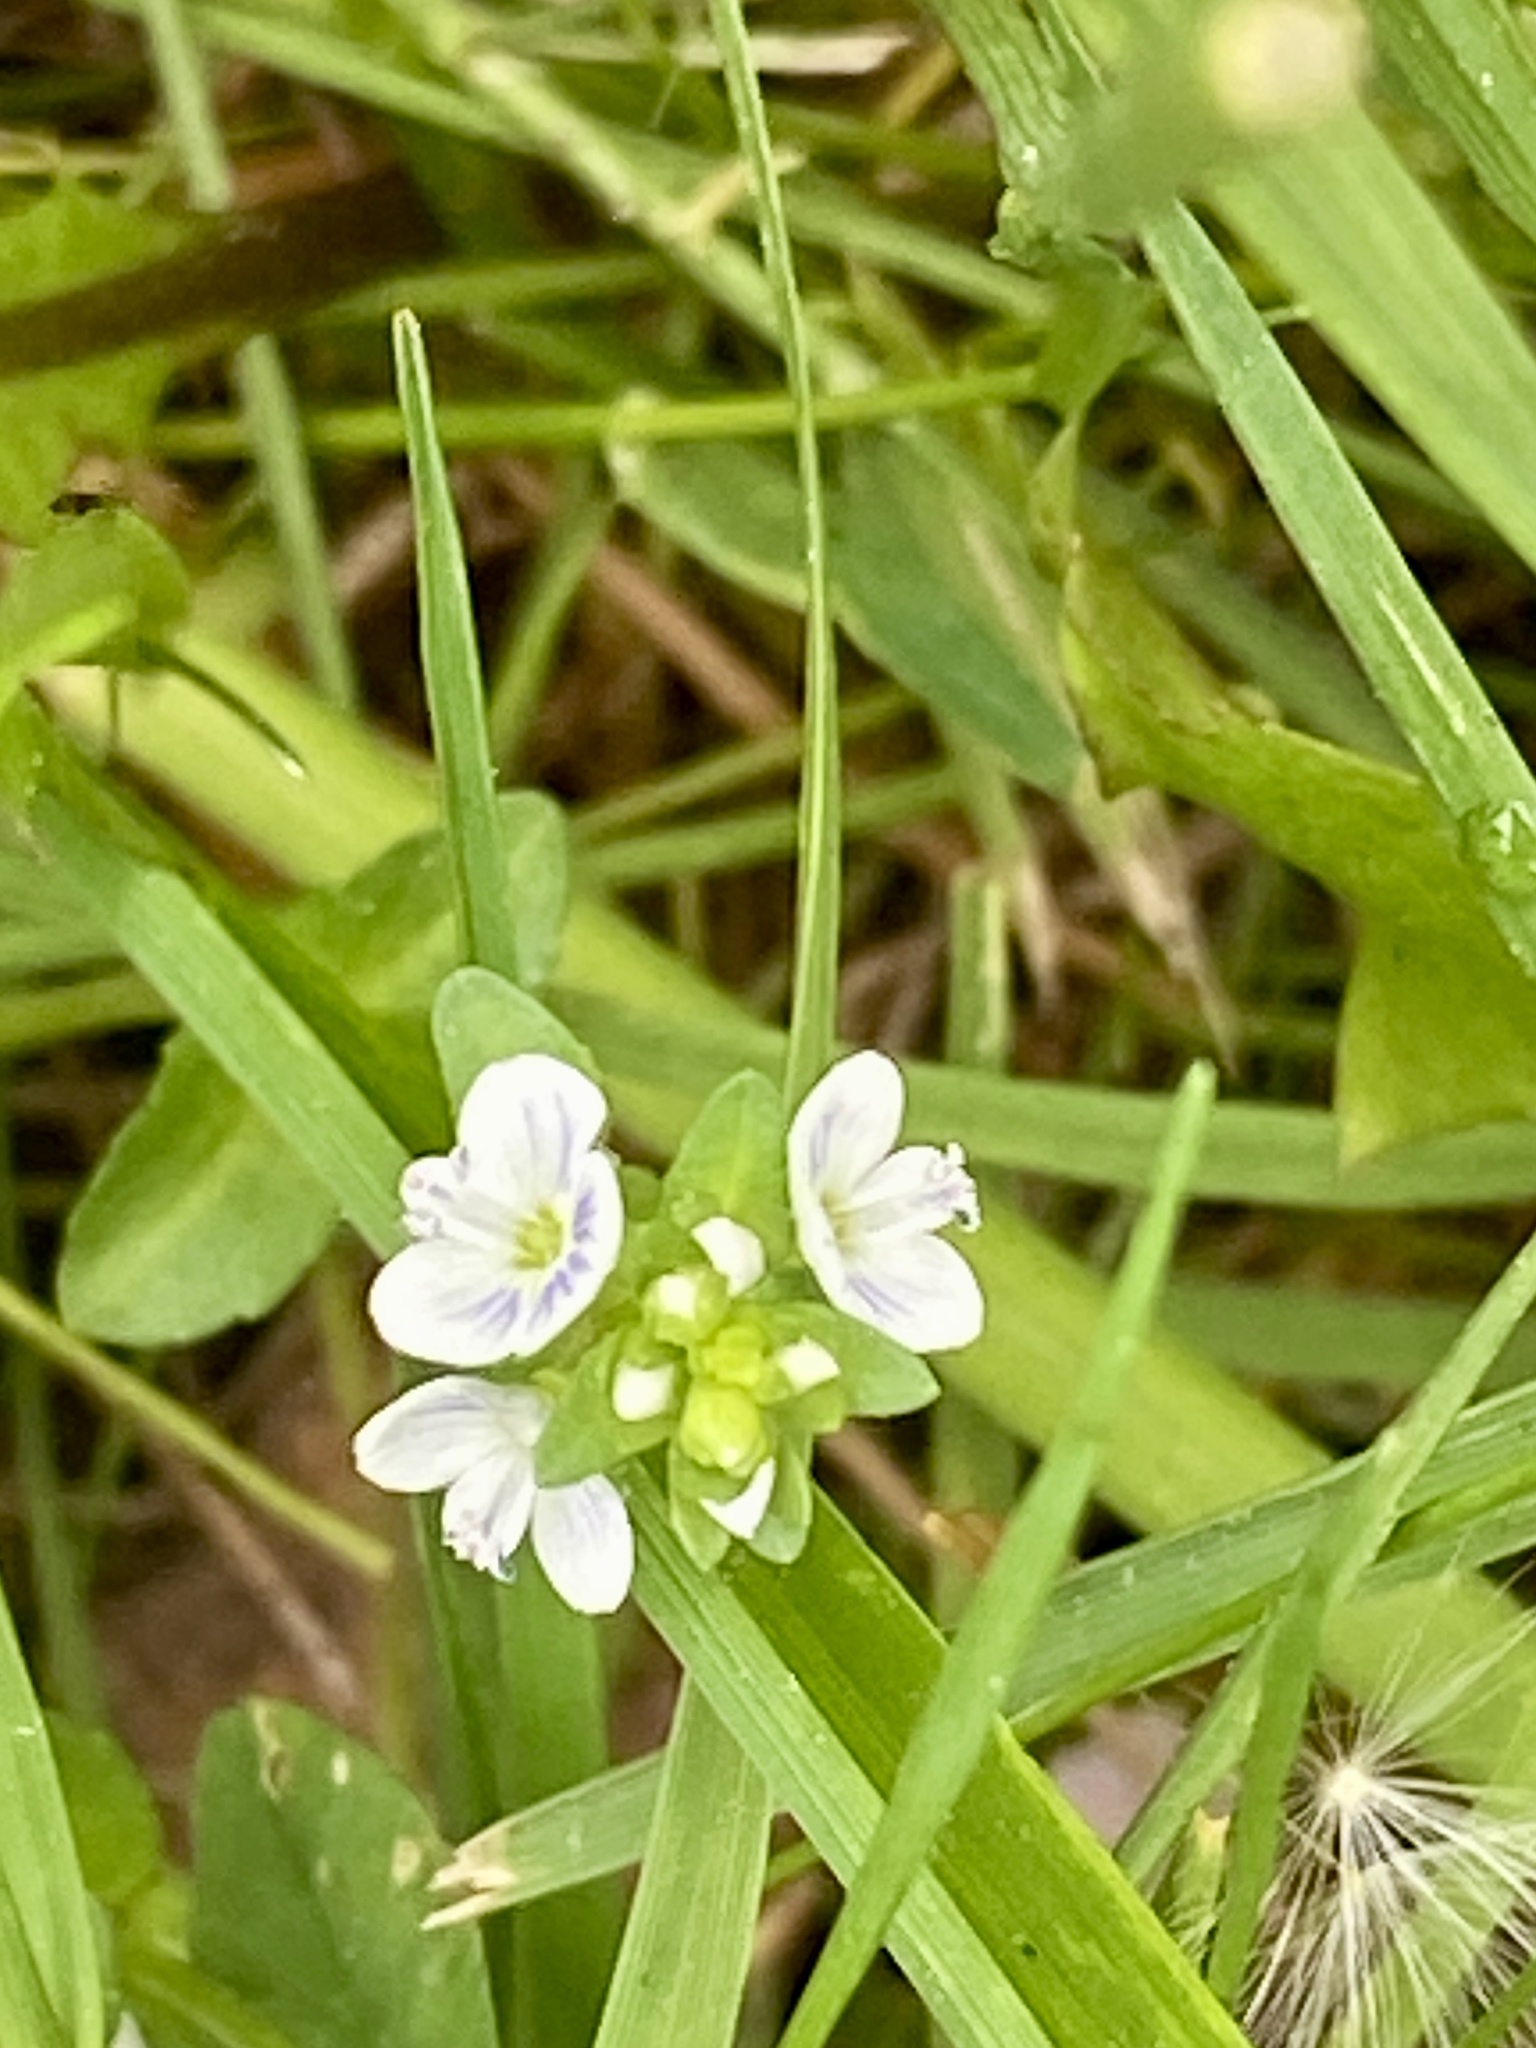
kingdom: Plantae
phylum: Tracheophyta
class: Magnoliopsida
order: Lamiales
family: Plantaginaceae
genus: Veronica
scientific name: Veronica serpyllifolia
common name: Thyme-leaved speedwell
